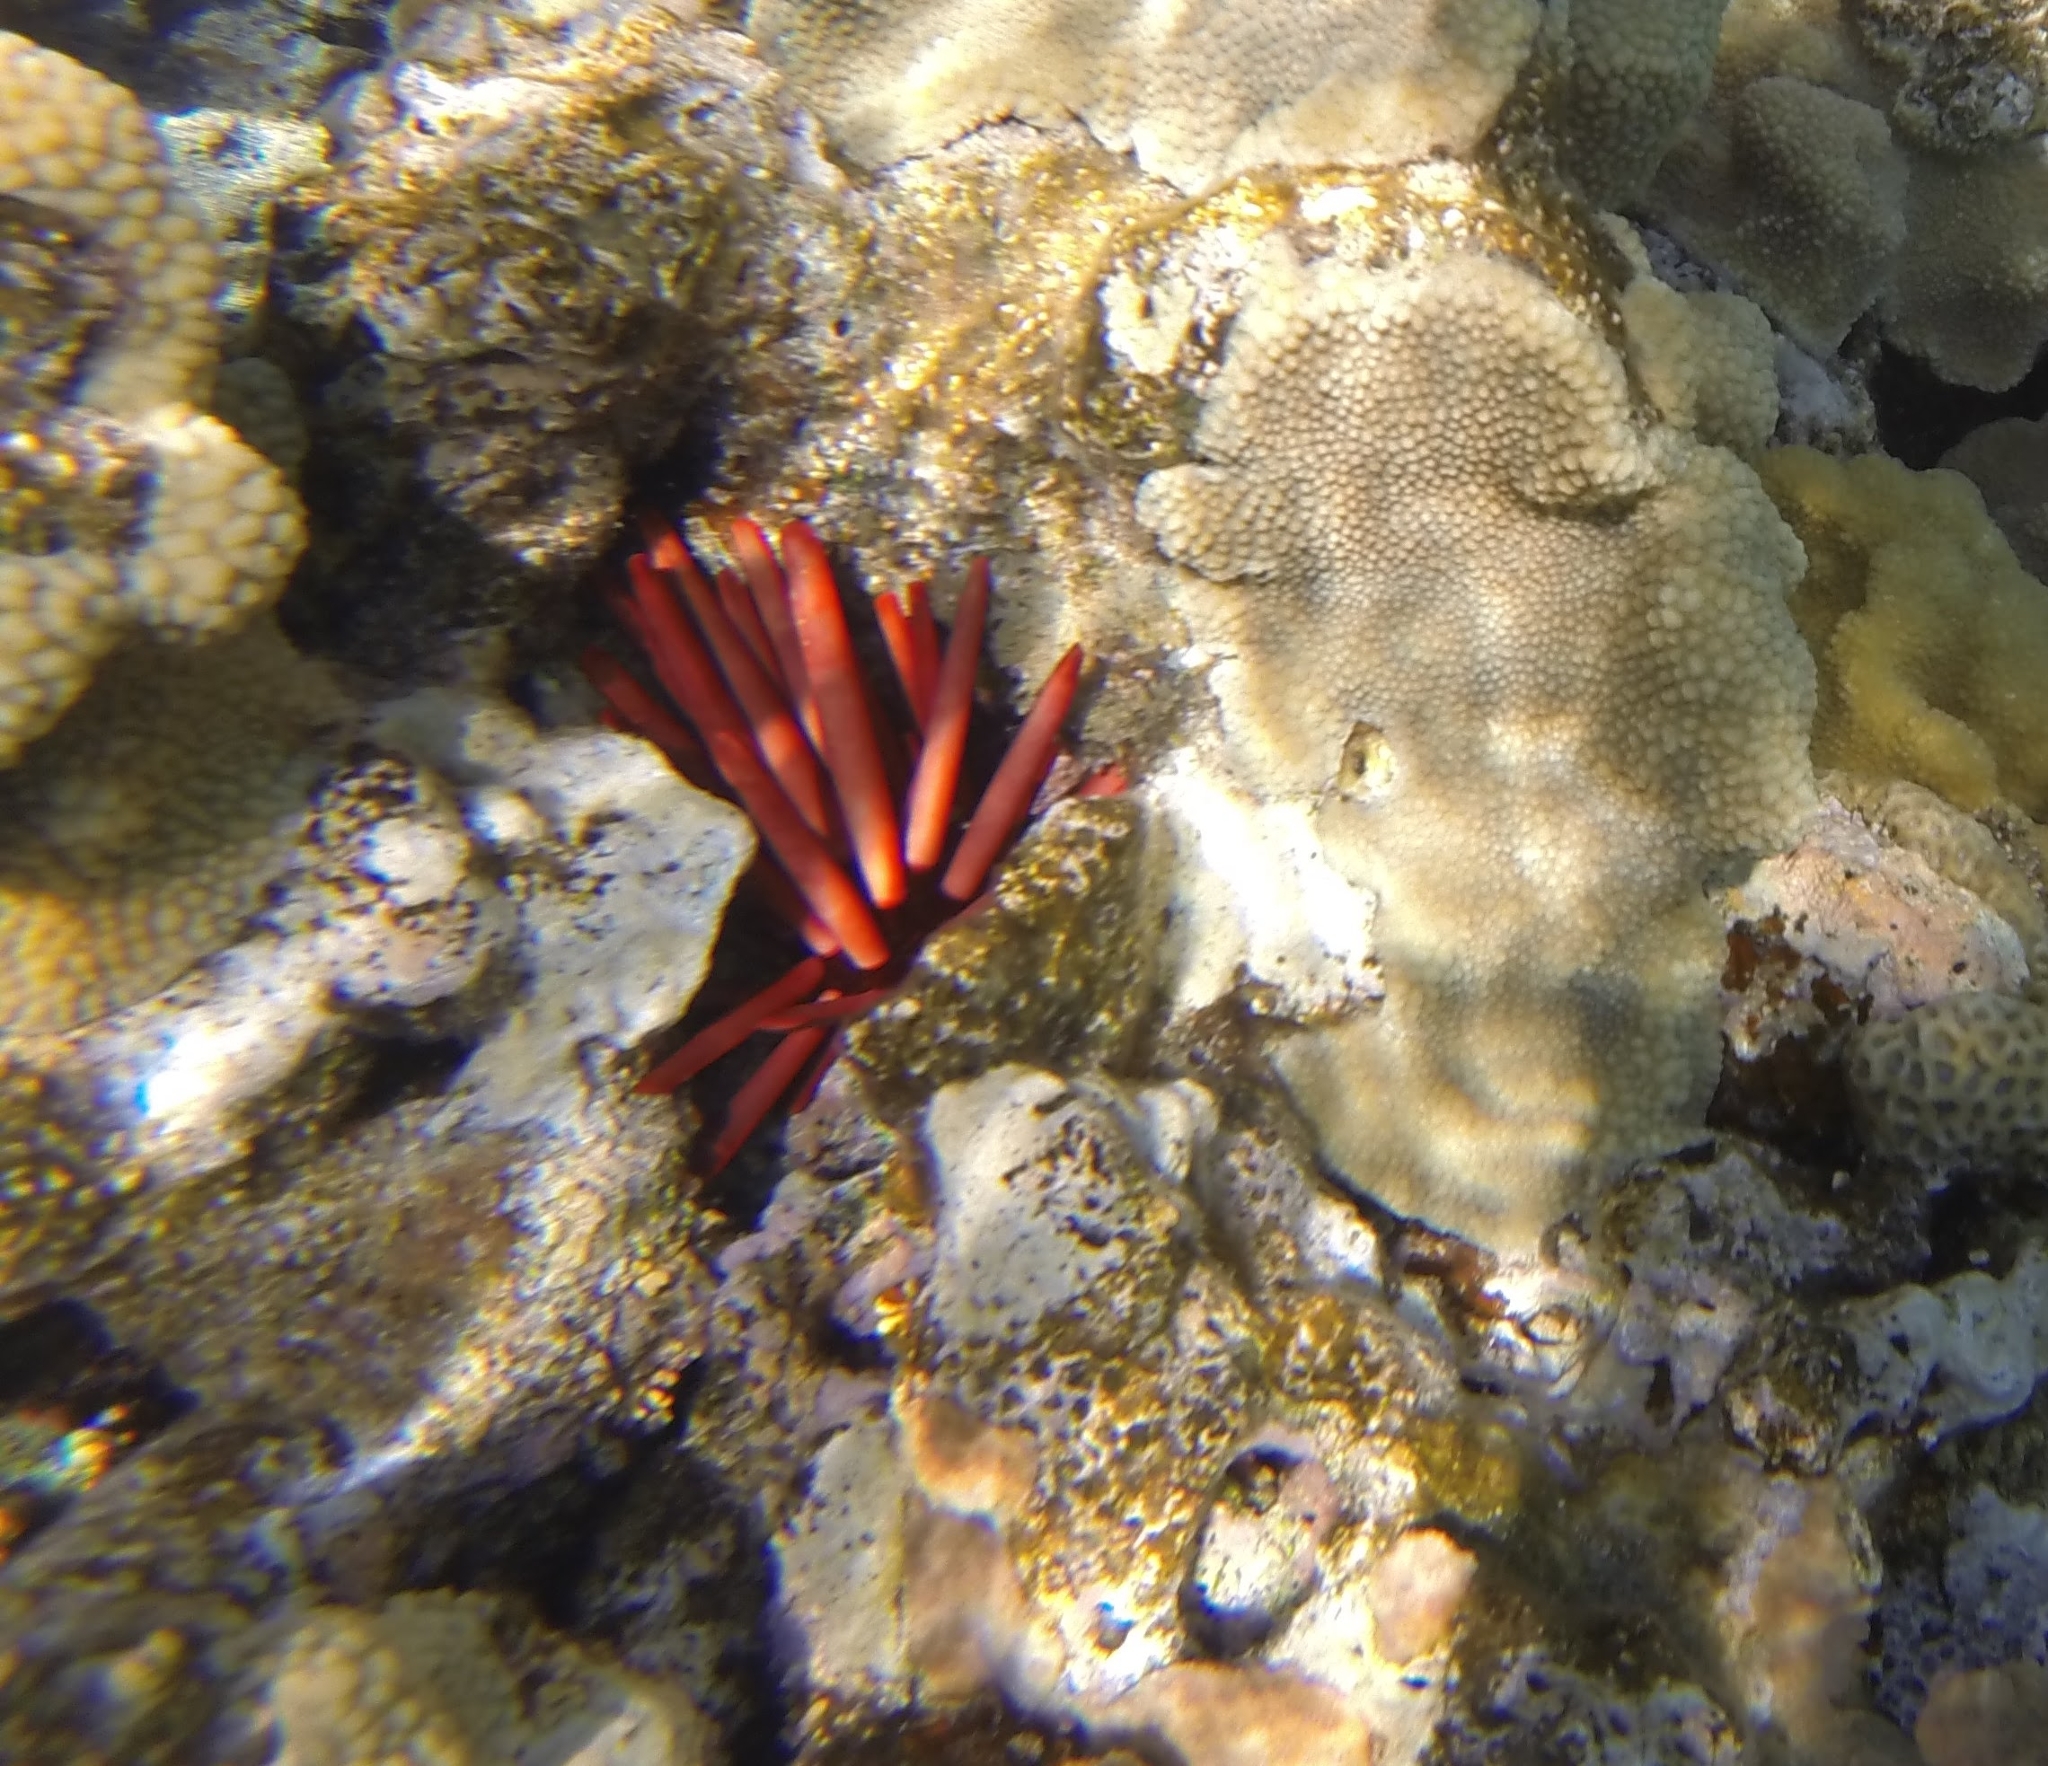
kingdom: Animalia
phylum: Echinodermata
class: Echinoidea
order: Camarodonta
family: Echinometridae
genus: Heterocentrotus
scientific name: Heterocentrotus mamillatus
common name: Slate pencil urchin
